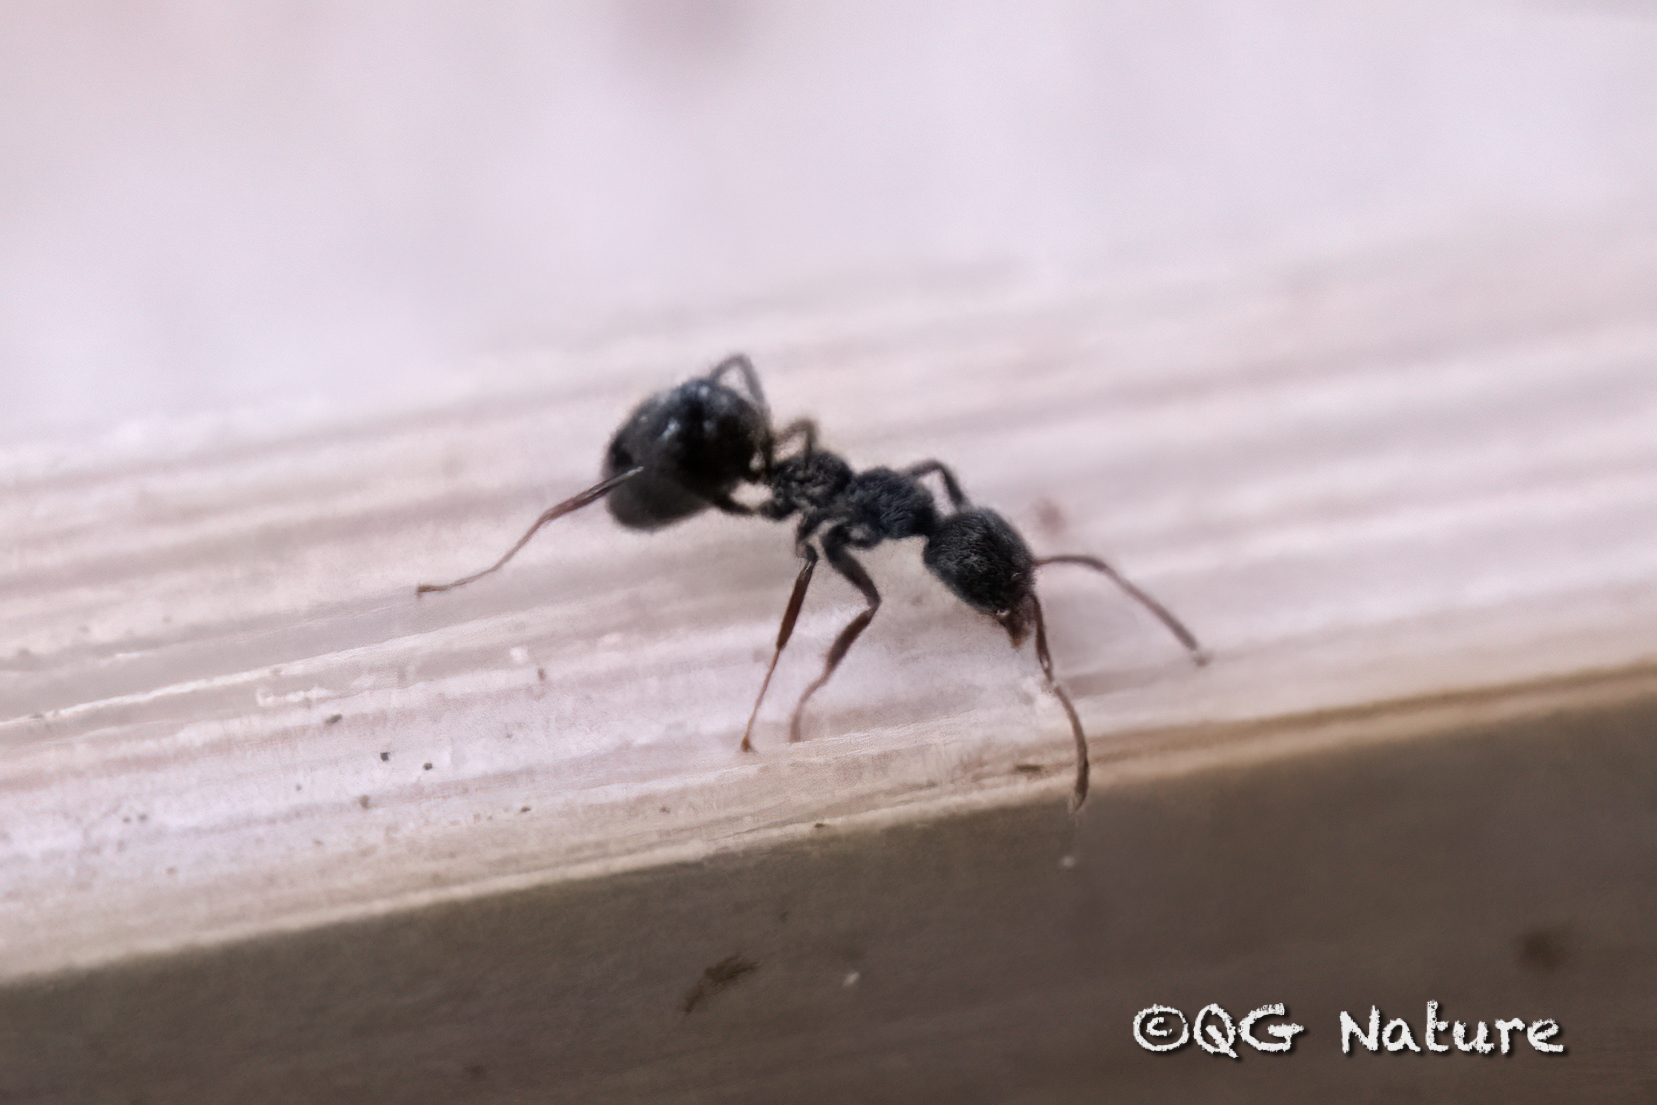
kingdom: Animalia
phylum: Arthropoda
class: Insecta
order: Hymenoptera
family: Formicidae
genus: Dolichoderus
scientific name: Dolichoderus thoracicus
